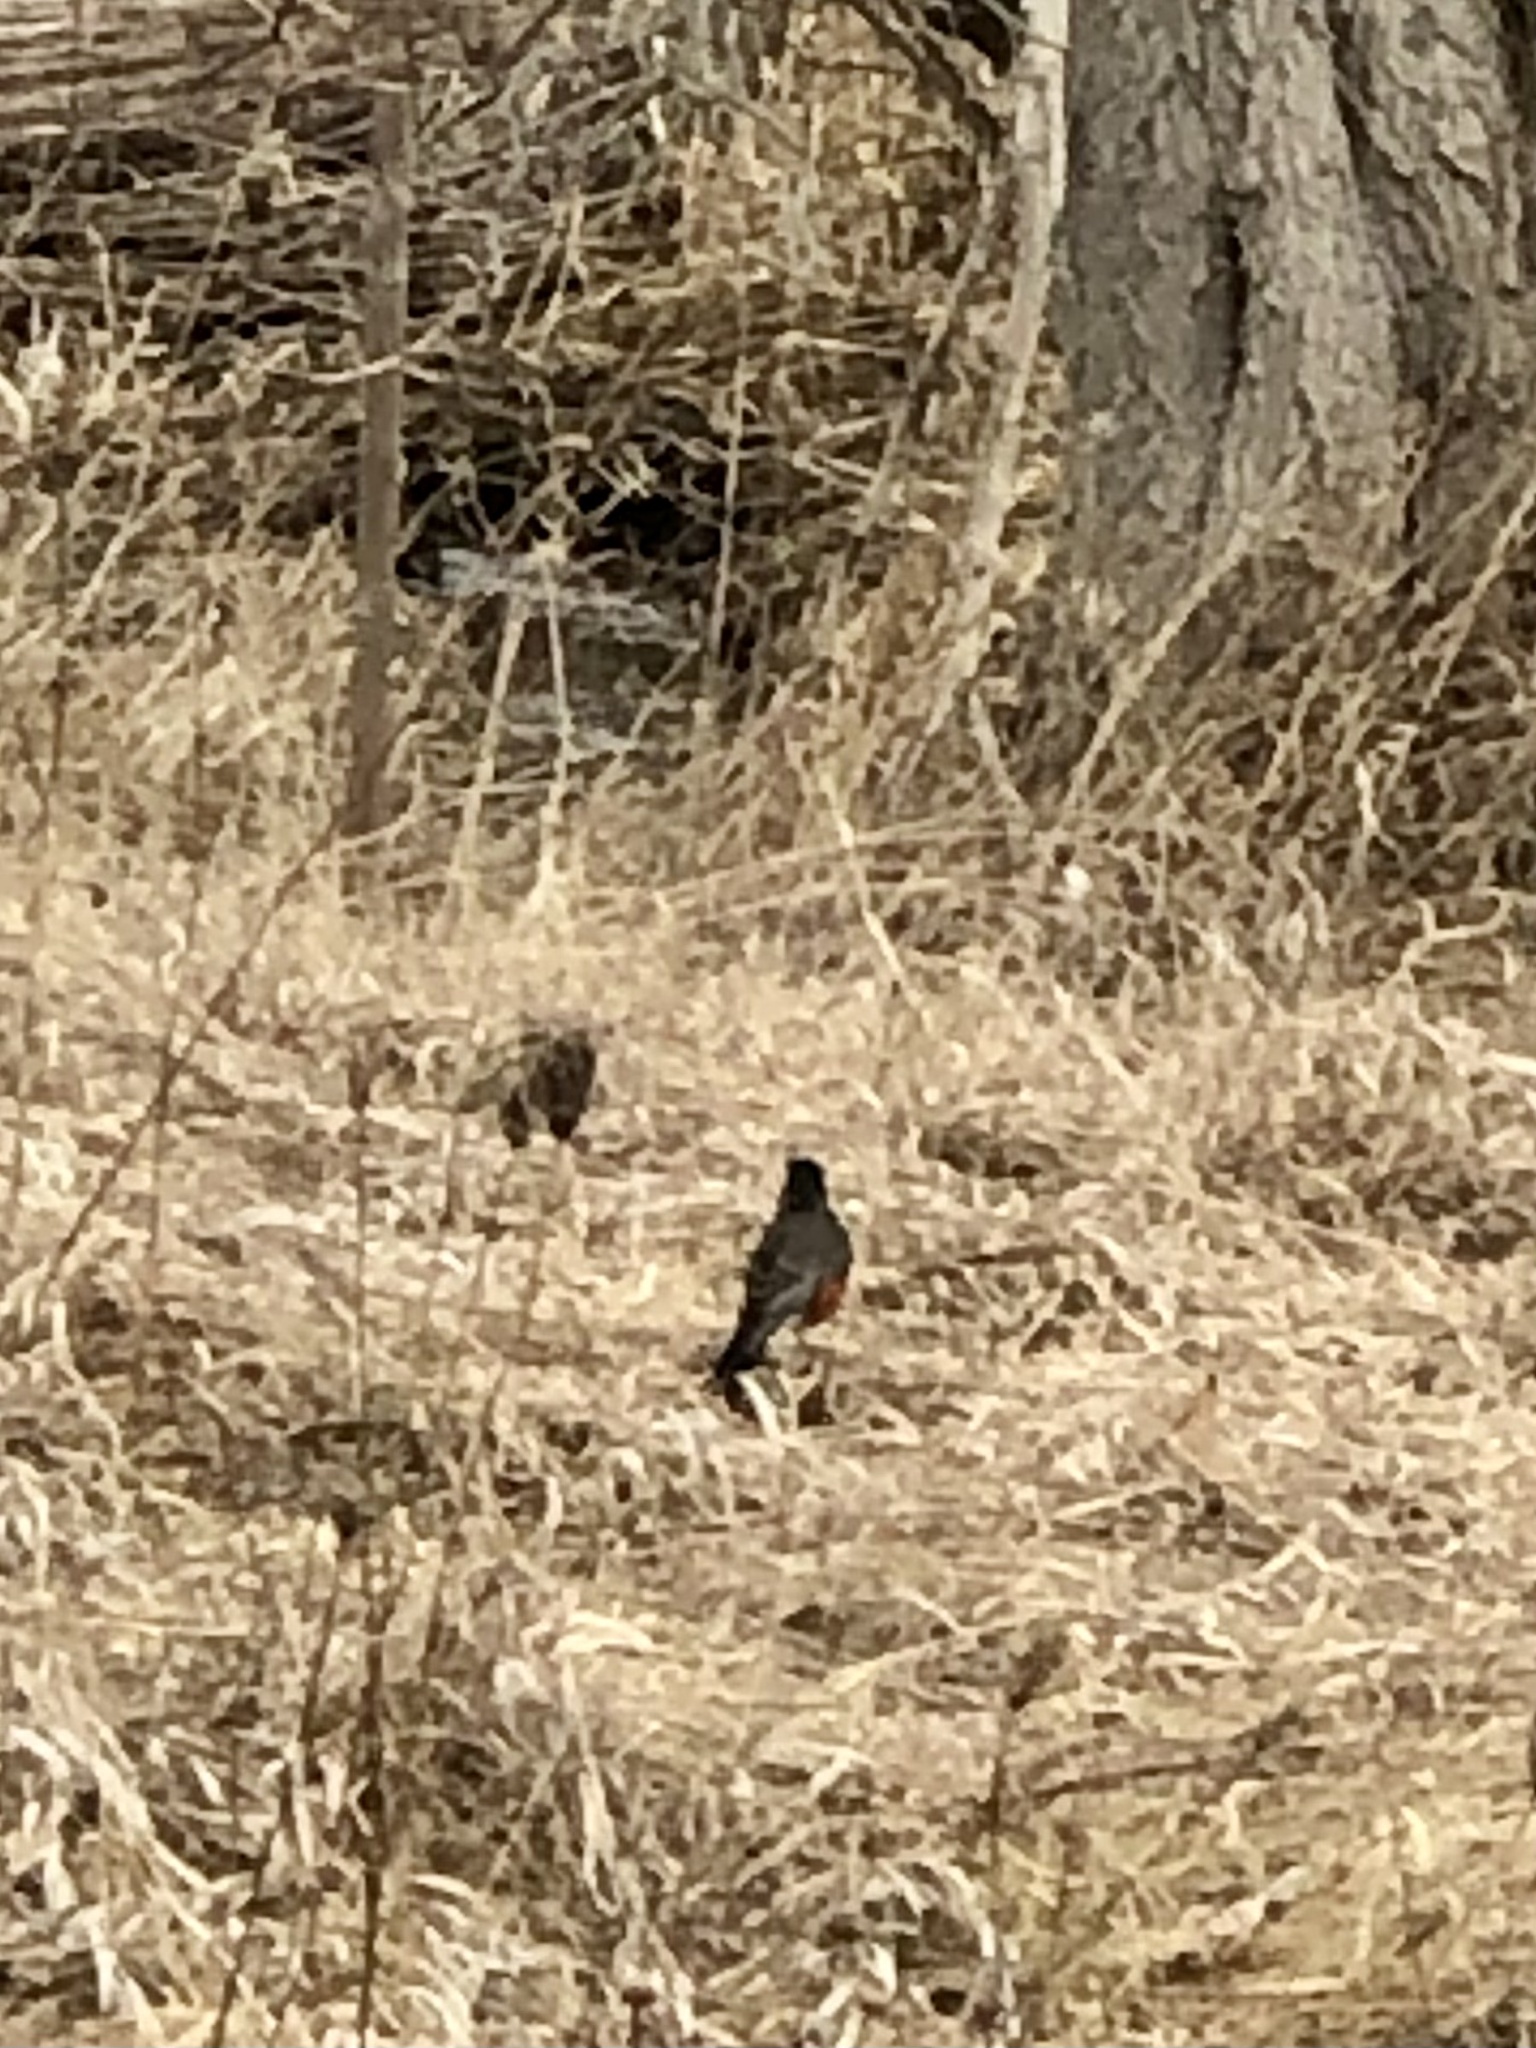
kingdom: Animalia
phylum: Chordata
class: Aves
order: Passeriformes
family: Turdidae
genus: Turdus
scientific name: Turdus migratorius
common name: American robin
